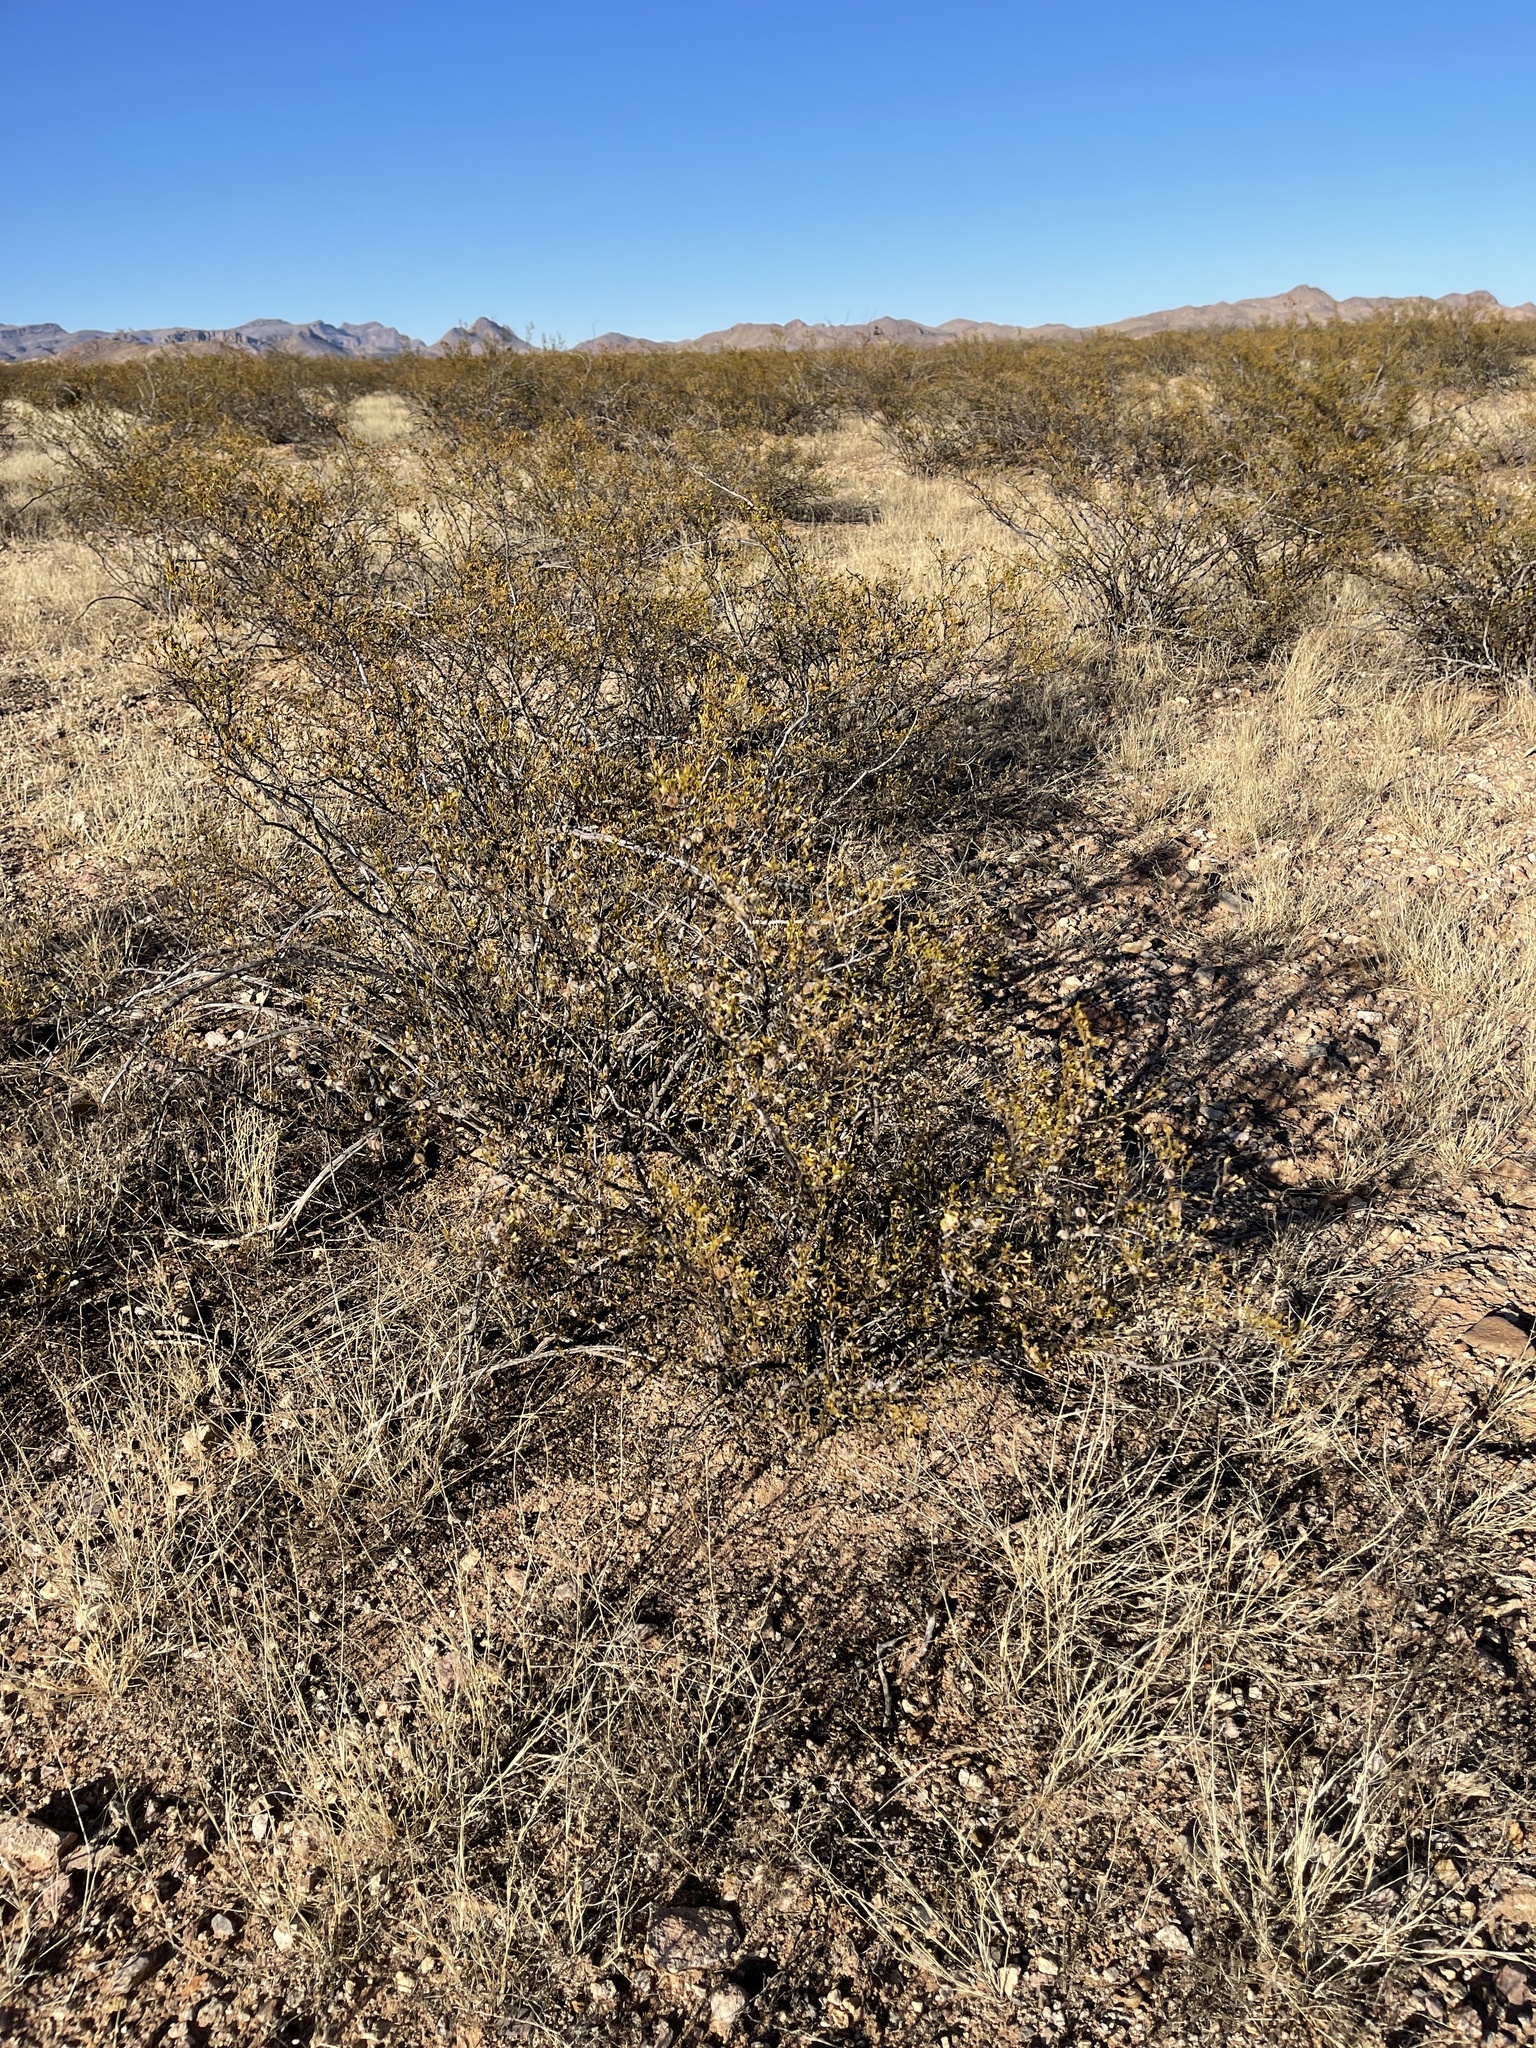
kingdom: Plantae
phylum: Tracheophyta
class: Magnoliopsida
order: Zygophyllales
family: Zygophyllaceae
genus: Larrea
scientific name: Larrea tridentata
